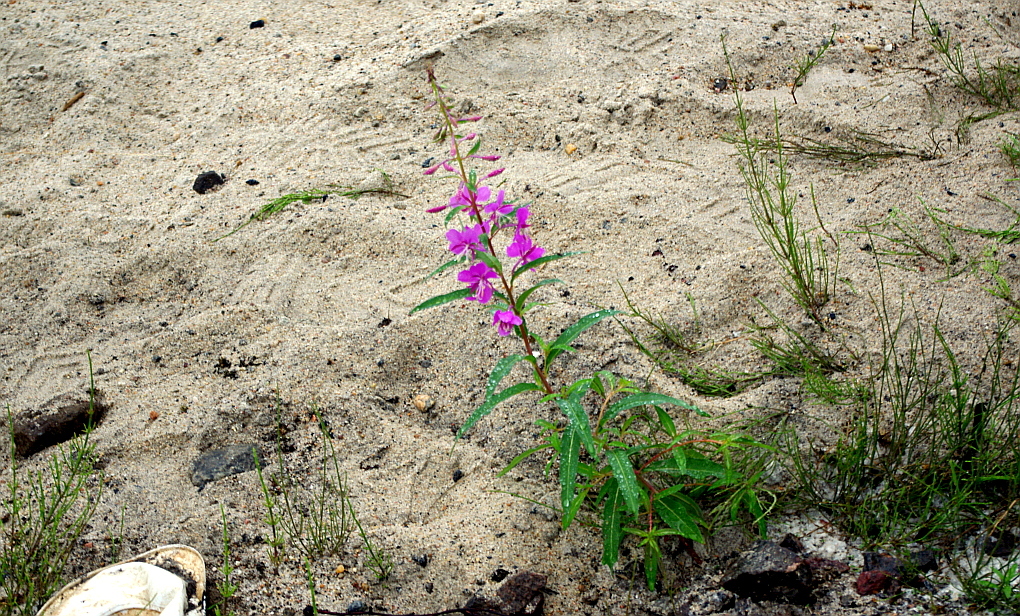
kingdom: Plantae
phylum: Tracheophyta
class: Magnoliopsida
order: Myrtales
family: Onagraceae
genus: Chamaenerion
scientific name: Chamaenerion angustifolium
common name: Fireweed
